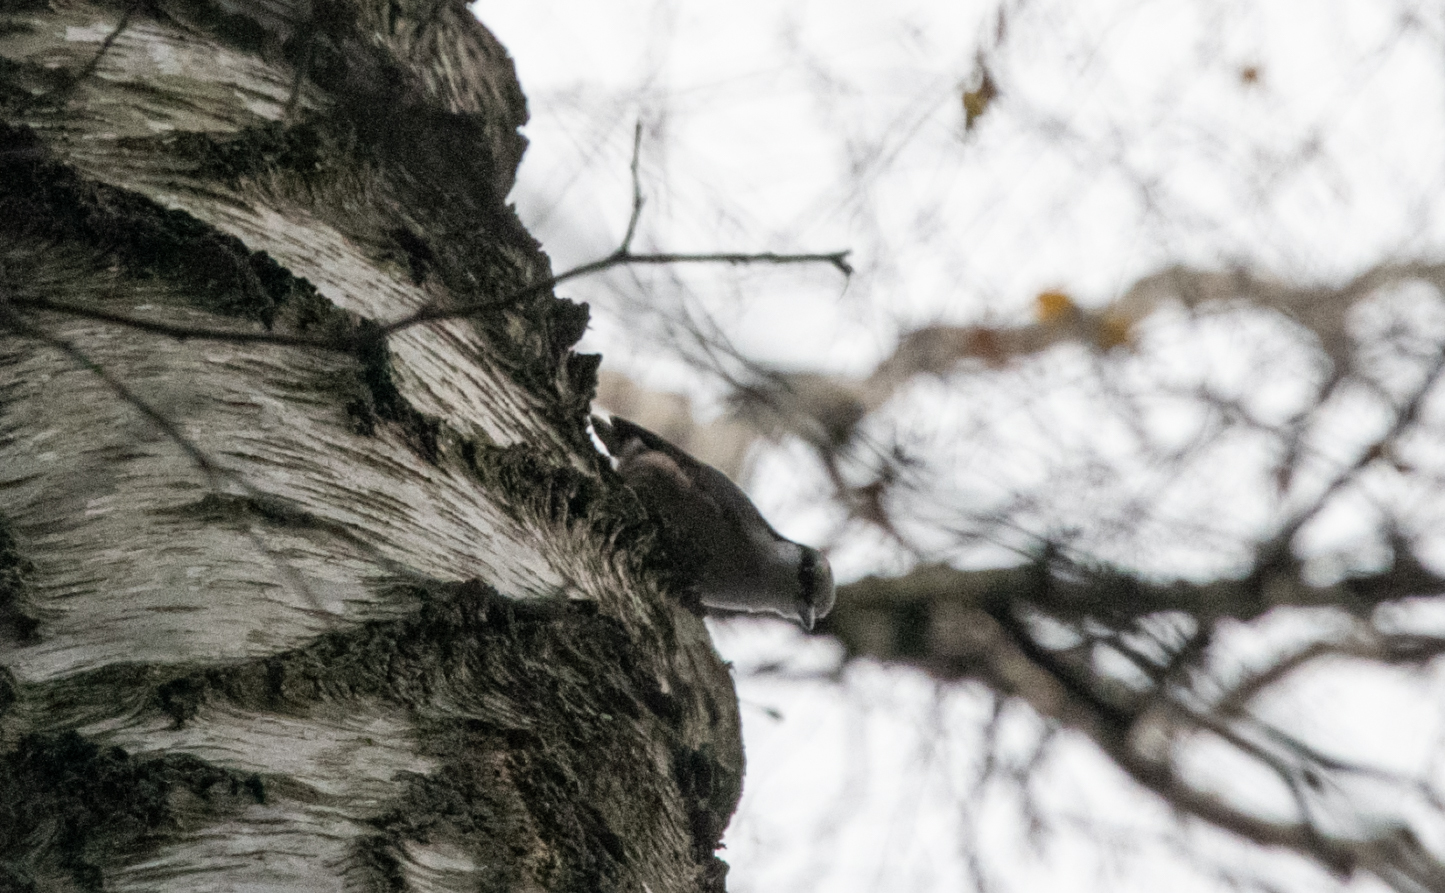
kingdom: Animalia
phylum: Chordata
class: Aves
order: Passeriformes
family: Sittidae
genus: Sitta
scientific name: Sitta europaea
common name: Eurasian nuthatch
